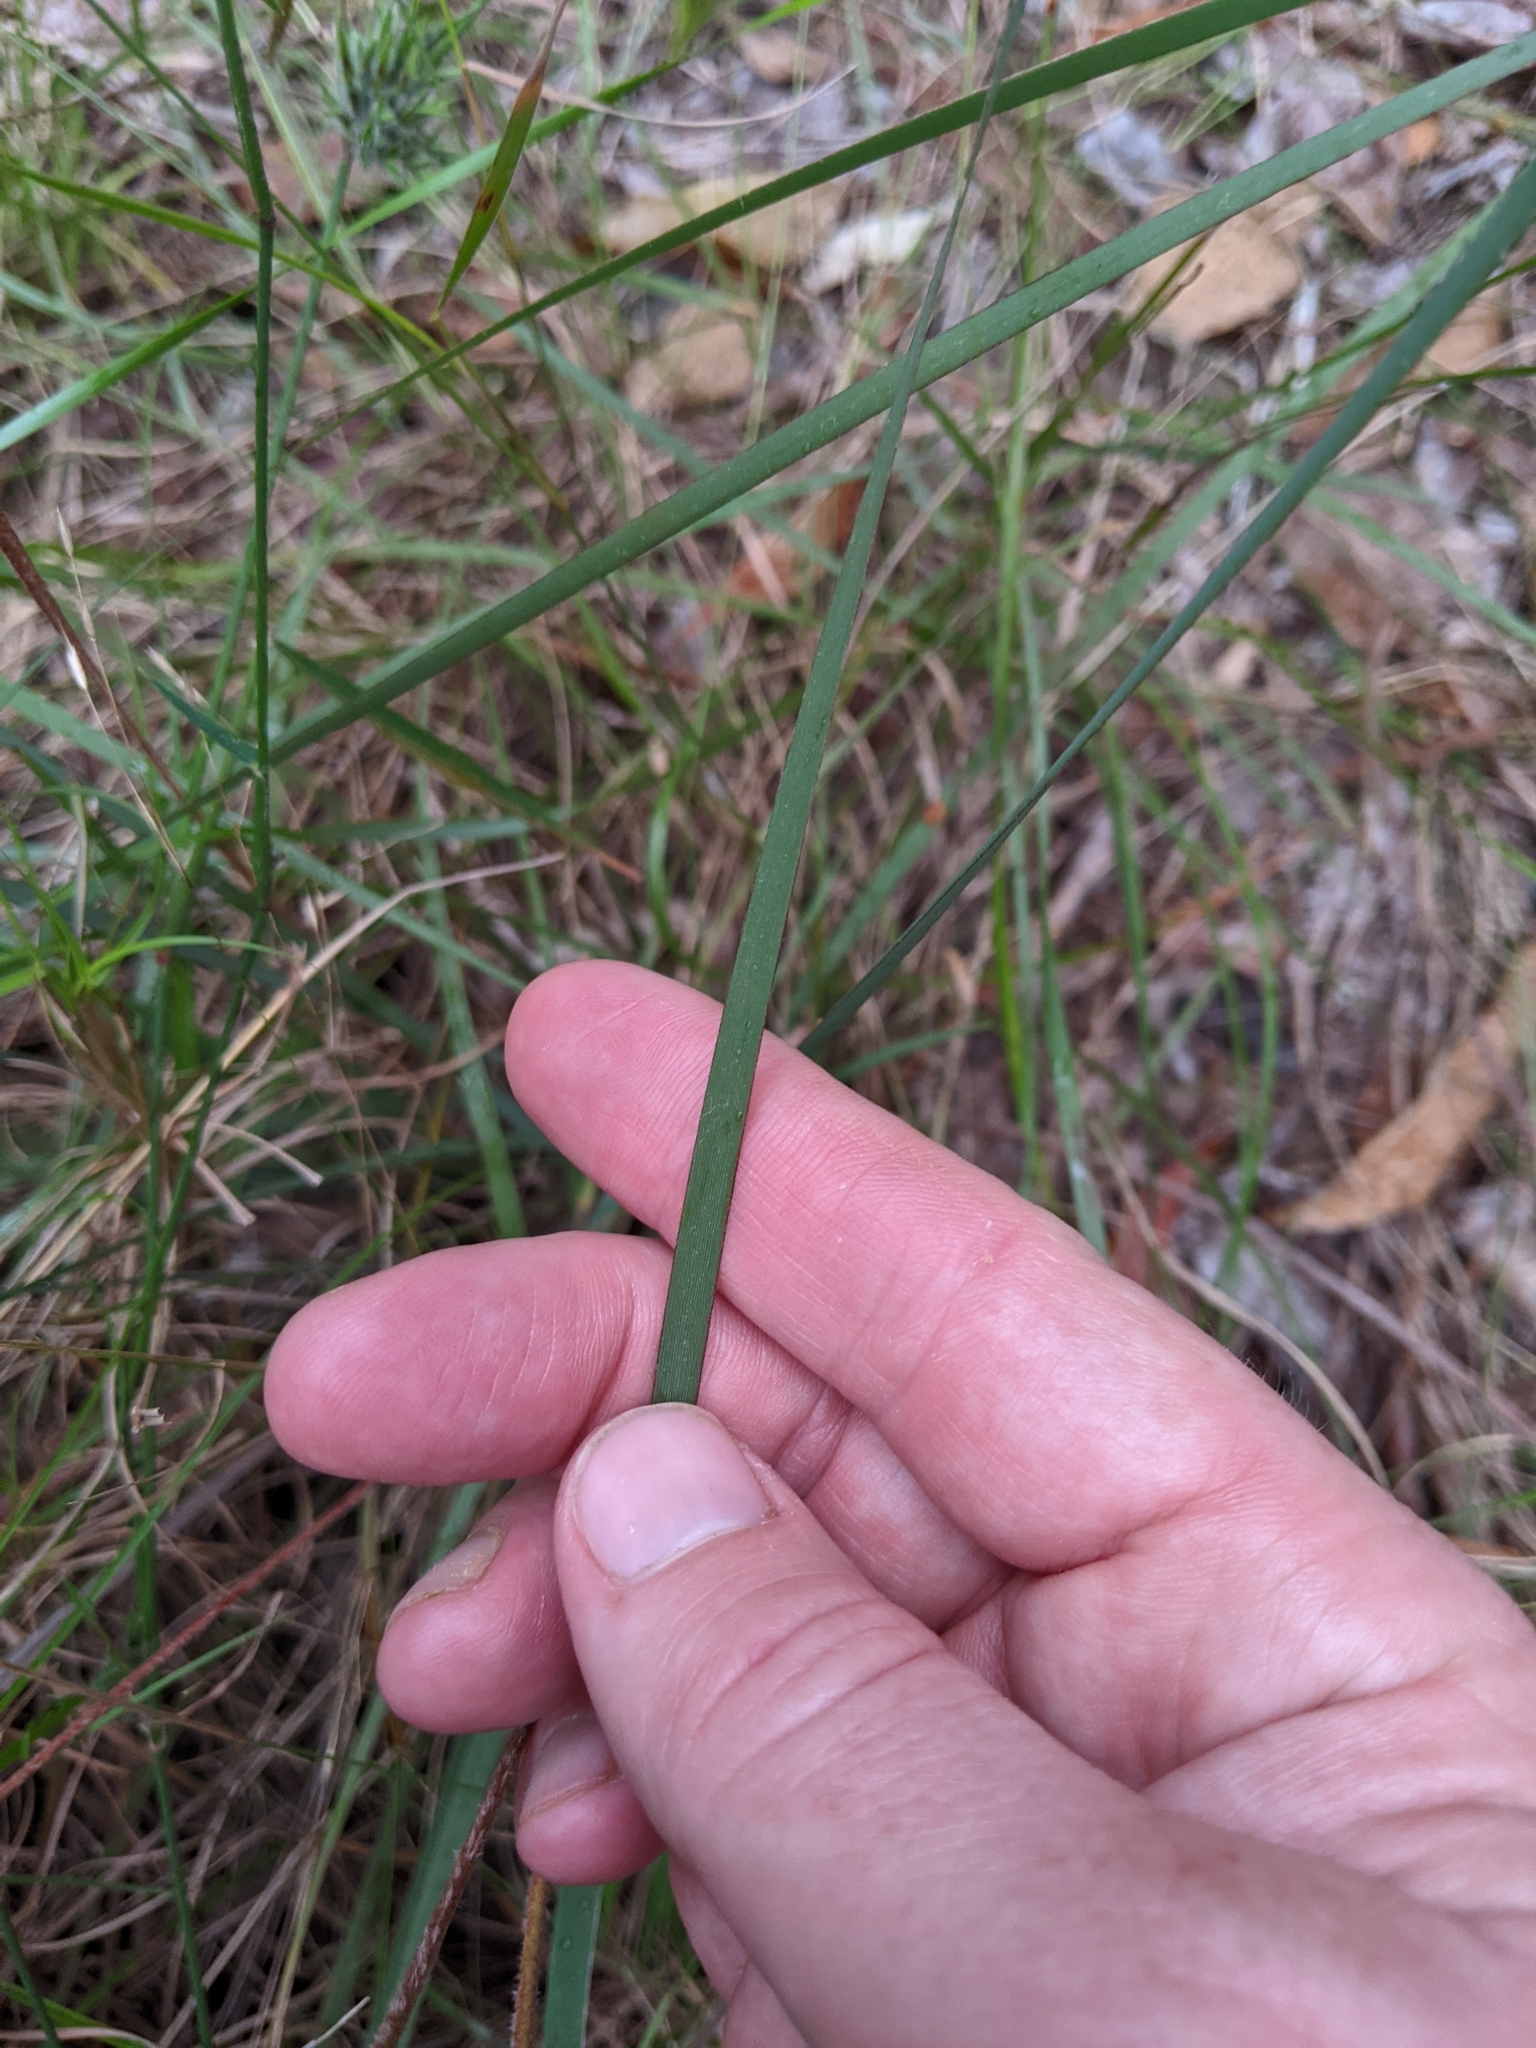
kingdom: Plantae
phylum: Tracheophyta
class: Liliopsida
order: Asparagales
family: Iridaceae
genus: Patersonia
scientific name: Patersonia sericea
